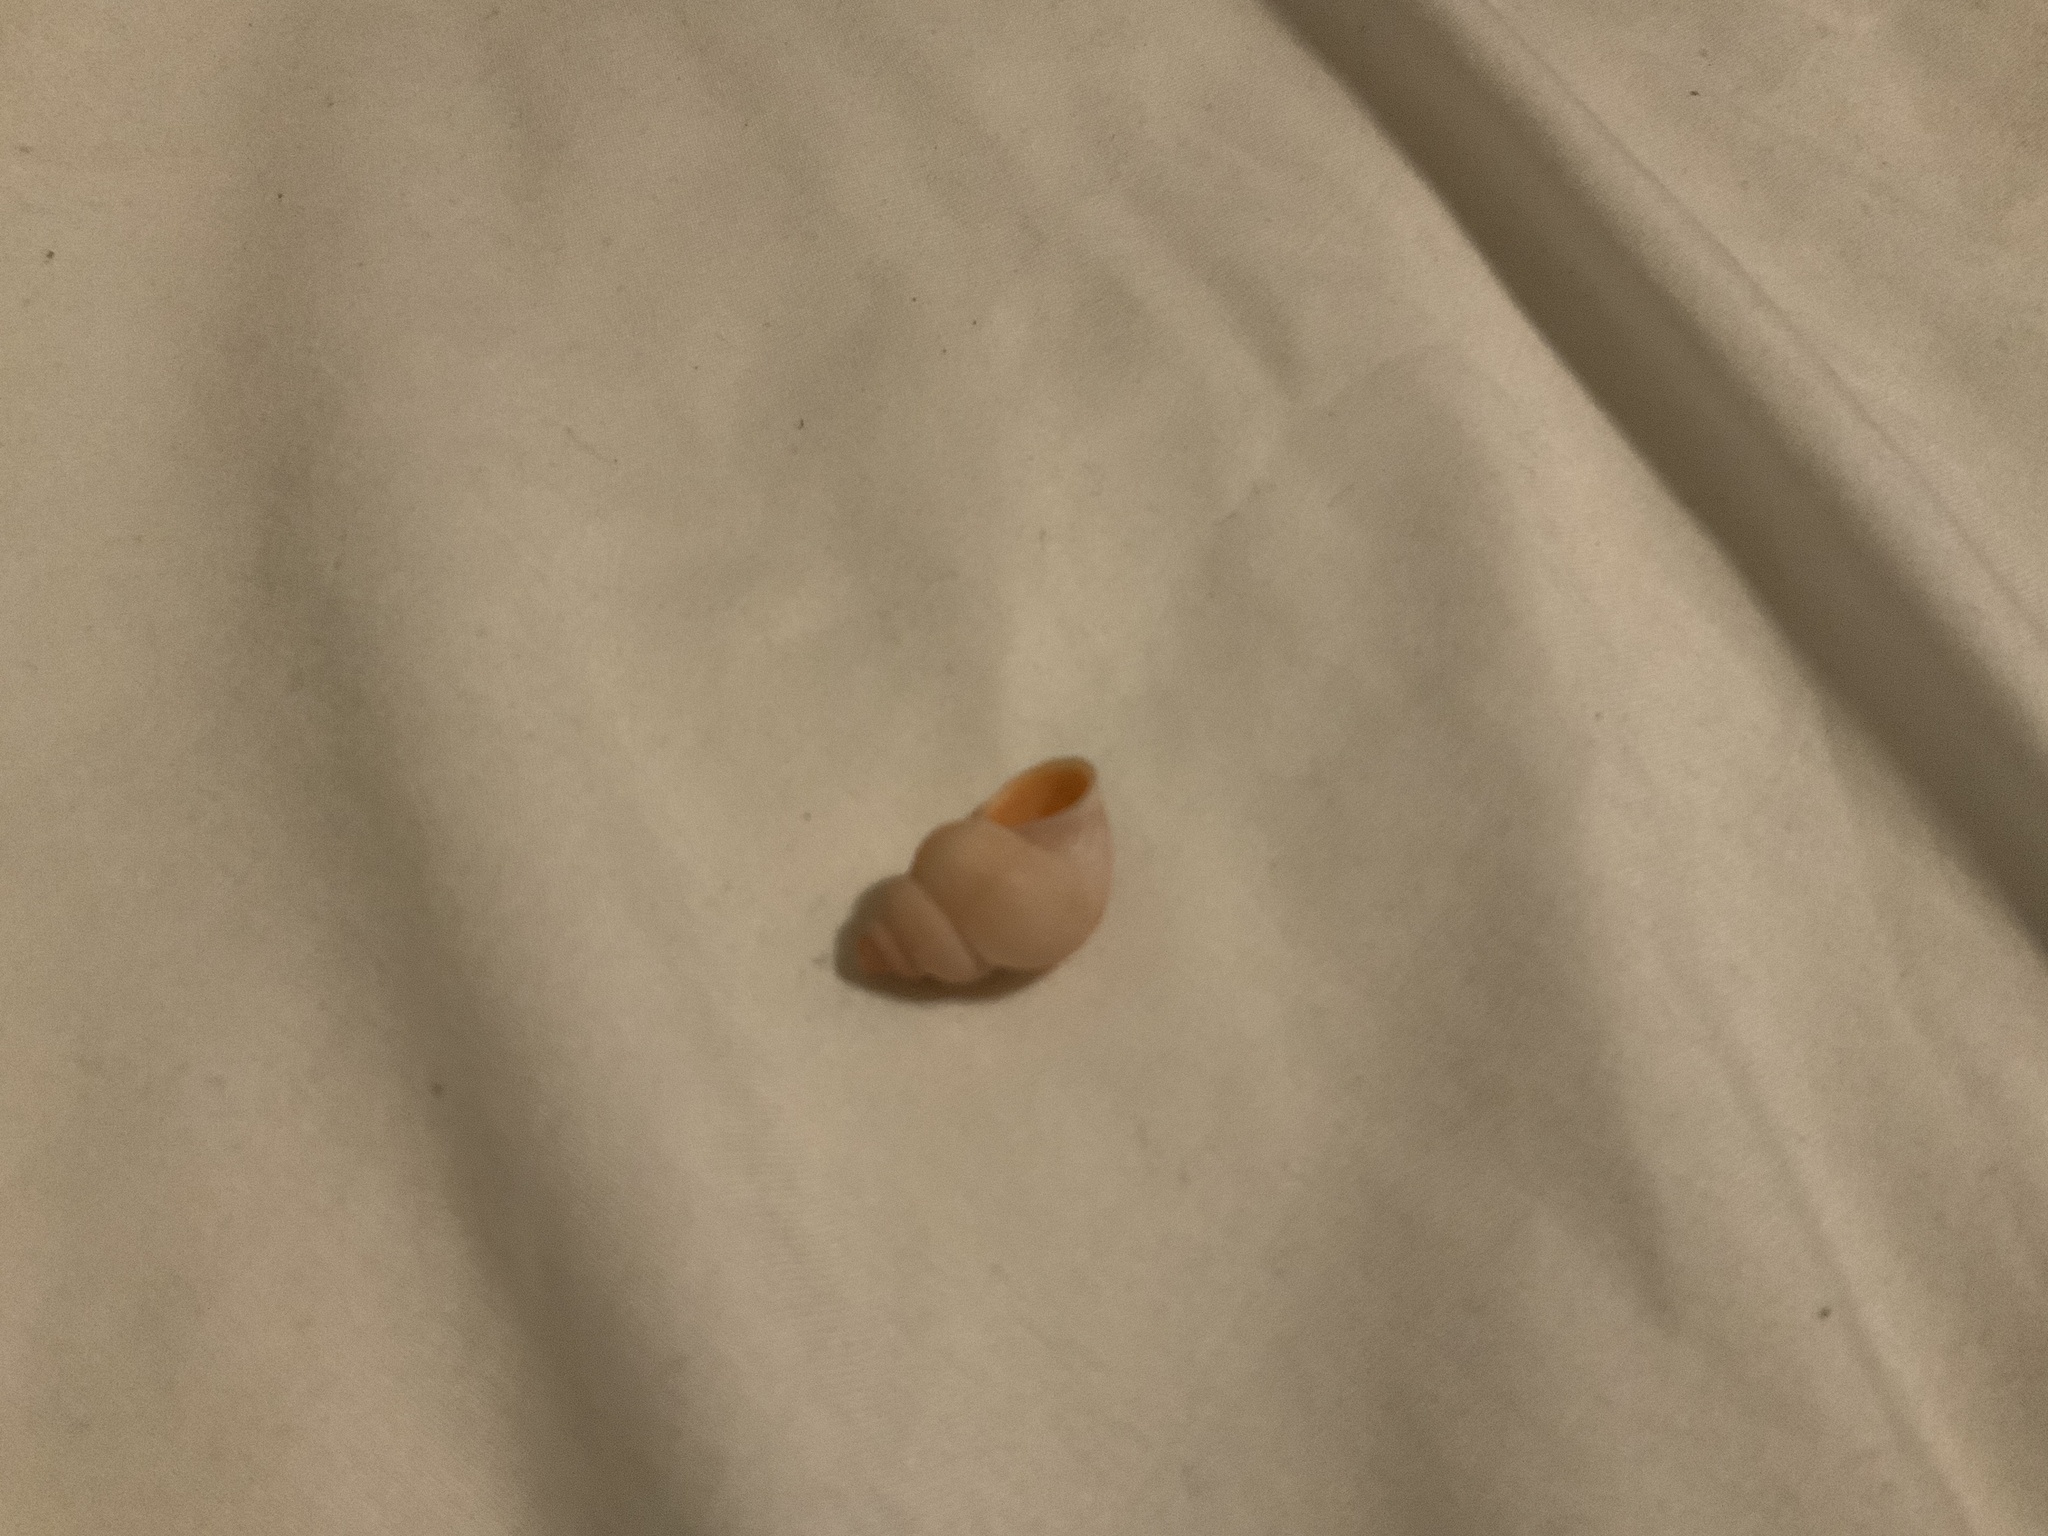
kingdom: Animalia
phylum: Mollusca
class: Gastropoda
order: Littorinimorpha
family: Pomatiidae
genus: Tudorella
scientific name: Tudorella sulcata
